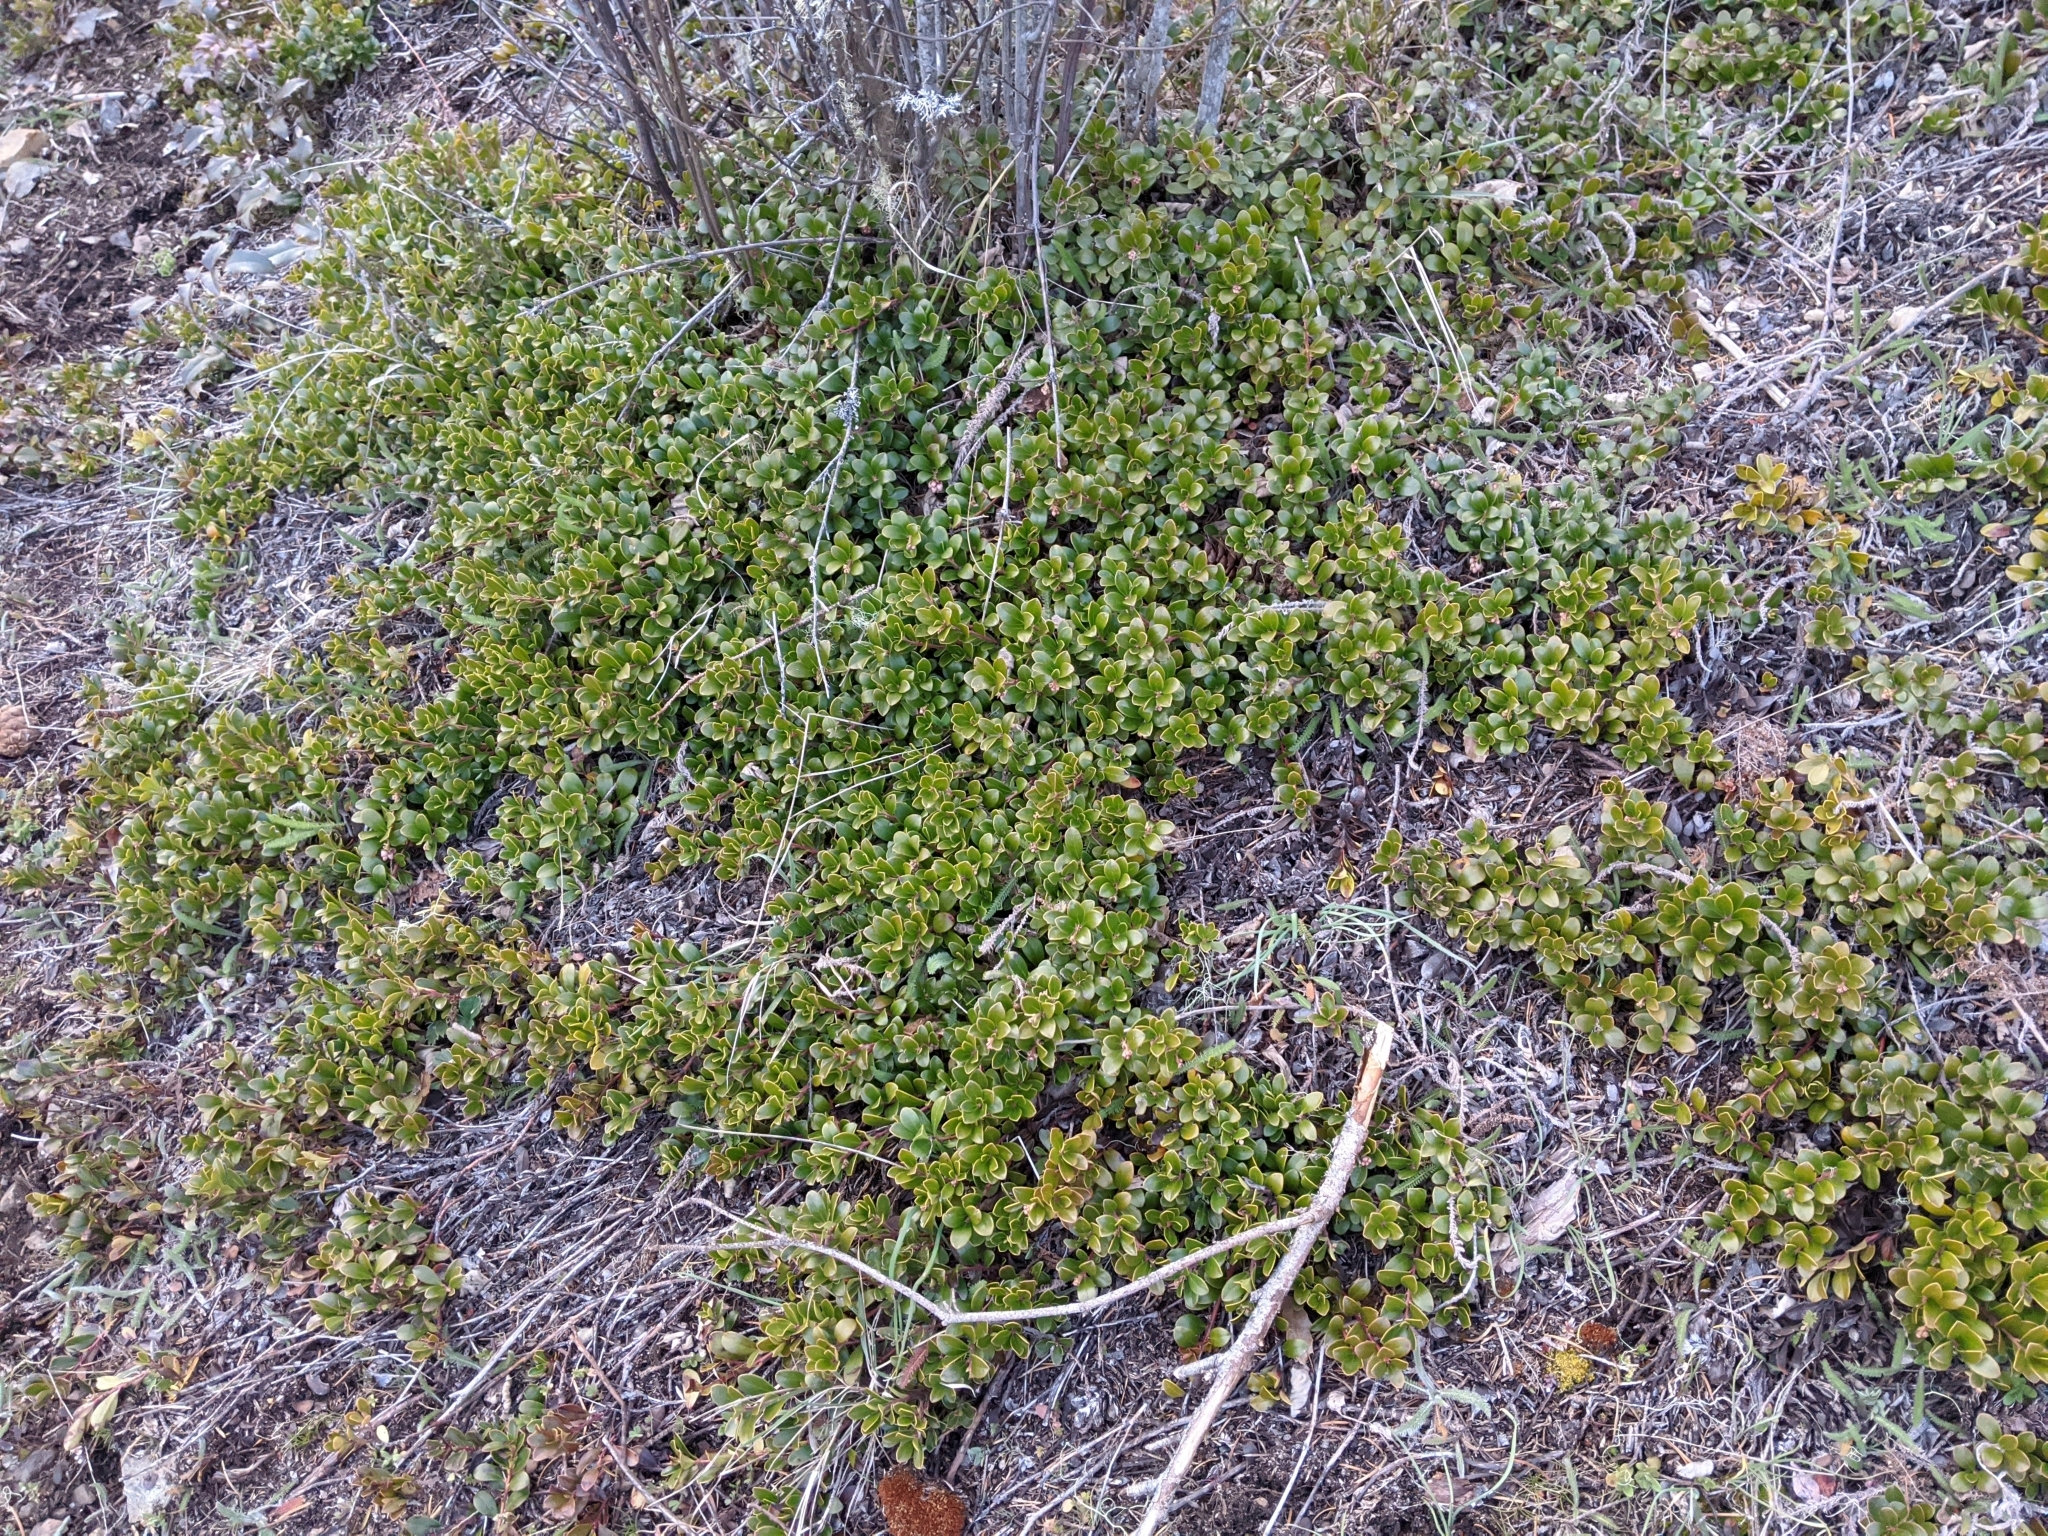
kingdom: Plantae
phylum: Tracheophyta
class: Magnoliopsida
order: Ericales
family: Ericaceae
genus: Arctostaphylos
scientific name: Arctostaphylos uva-ursi
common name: Bearberry
